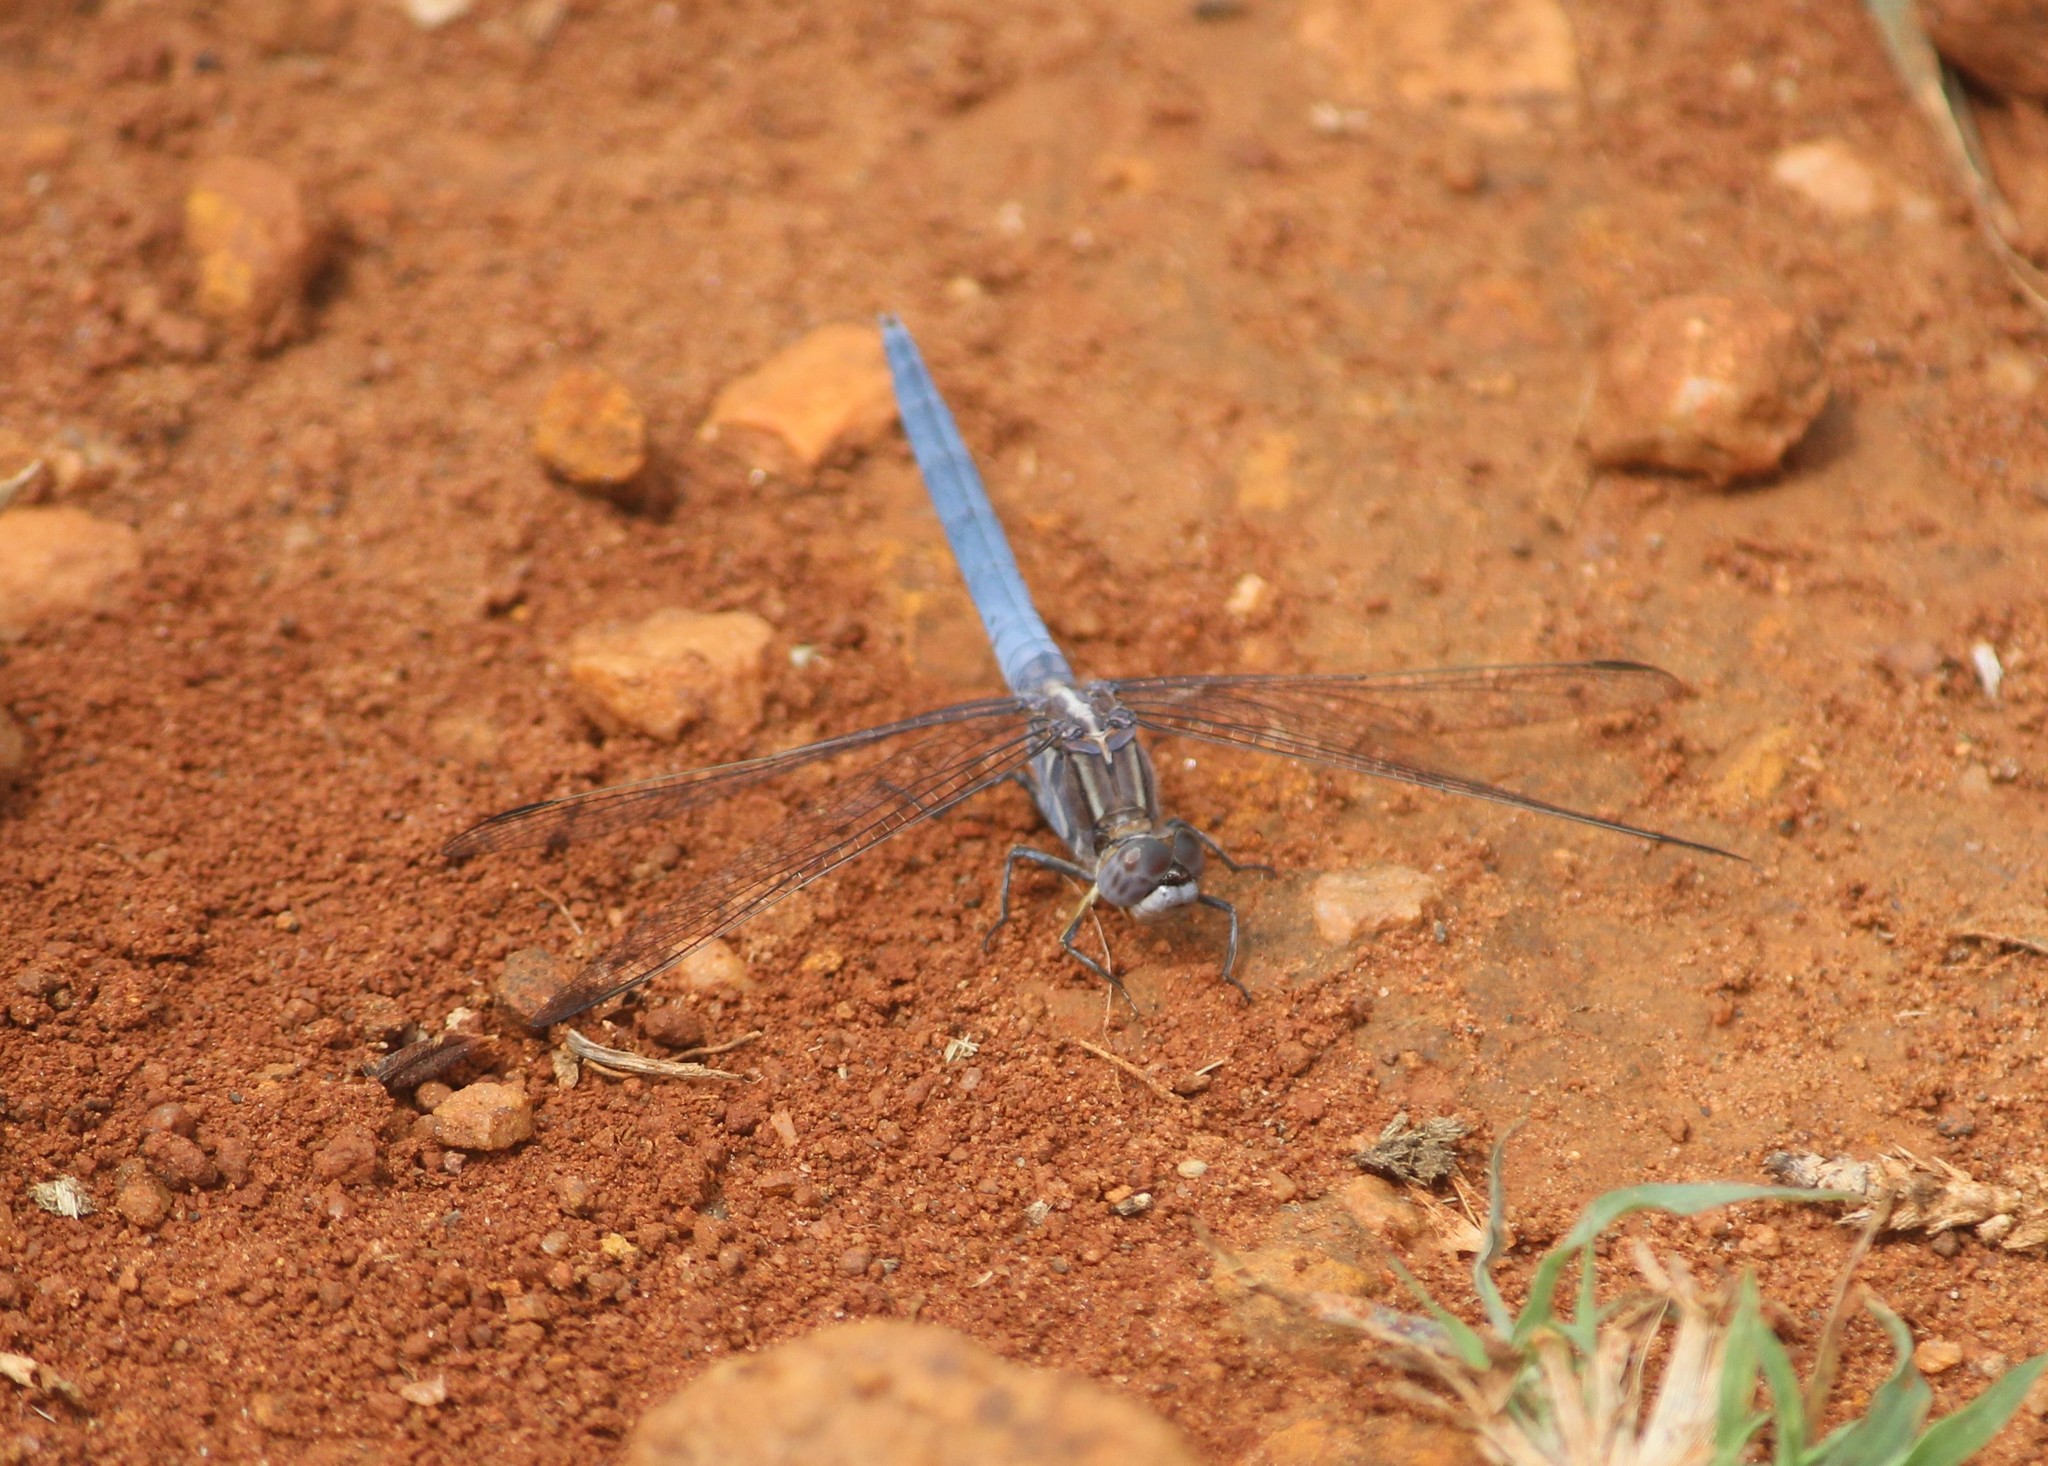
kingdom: Animalia
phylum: Arthropoda
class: Insecta
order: Odonata
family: Libellulidae
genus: Orthetrum
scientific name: Orthetrum taeniolatum
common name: Small skimmer
